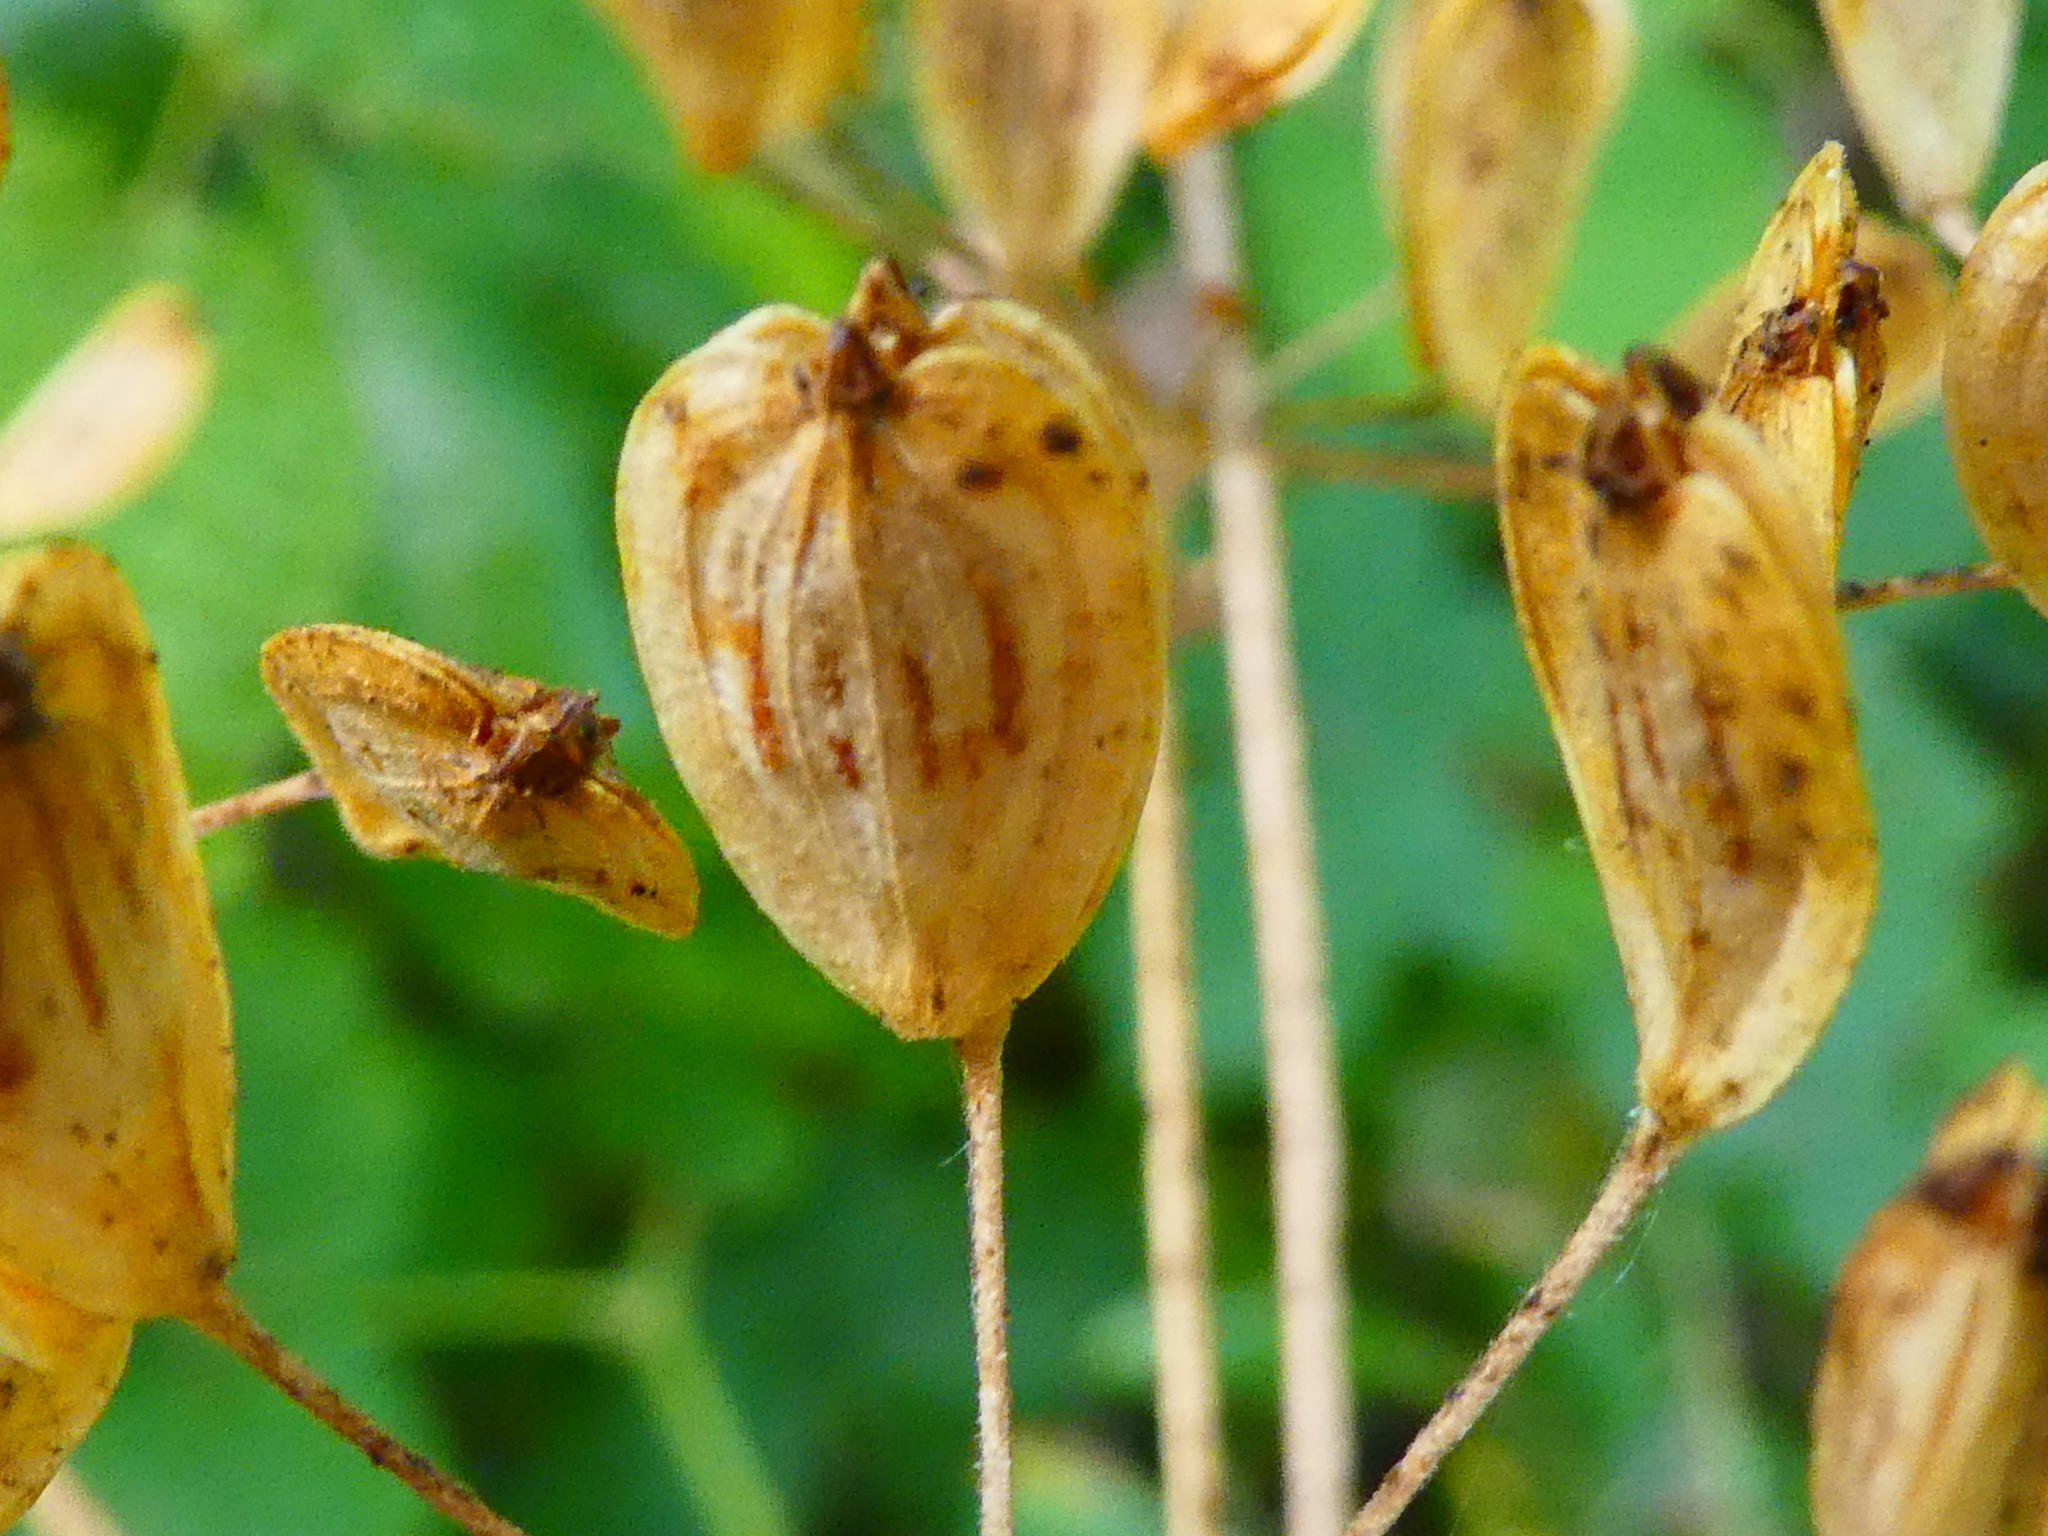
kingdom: Plantae
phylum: Tracheophyta
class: Magnoliopsida
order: Apiales
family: Apiaceae
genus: Heracleum
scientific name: Heracleum maximum
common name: American cow parsnip
